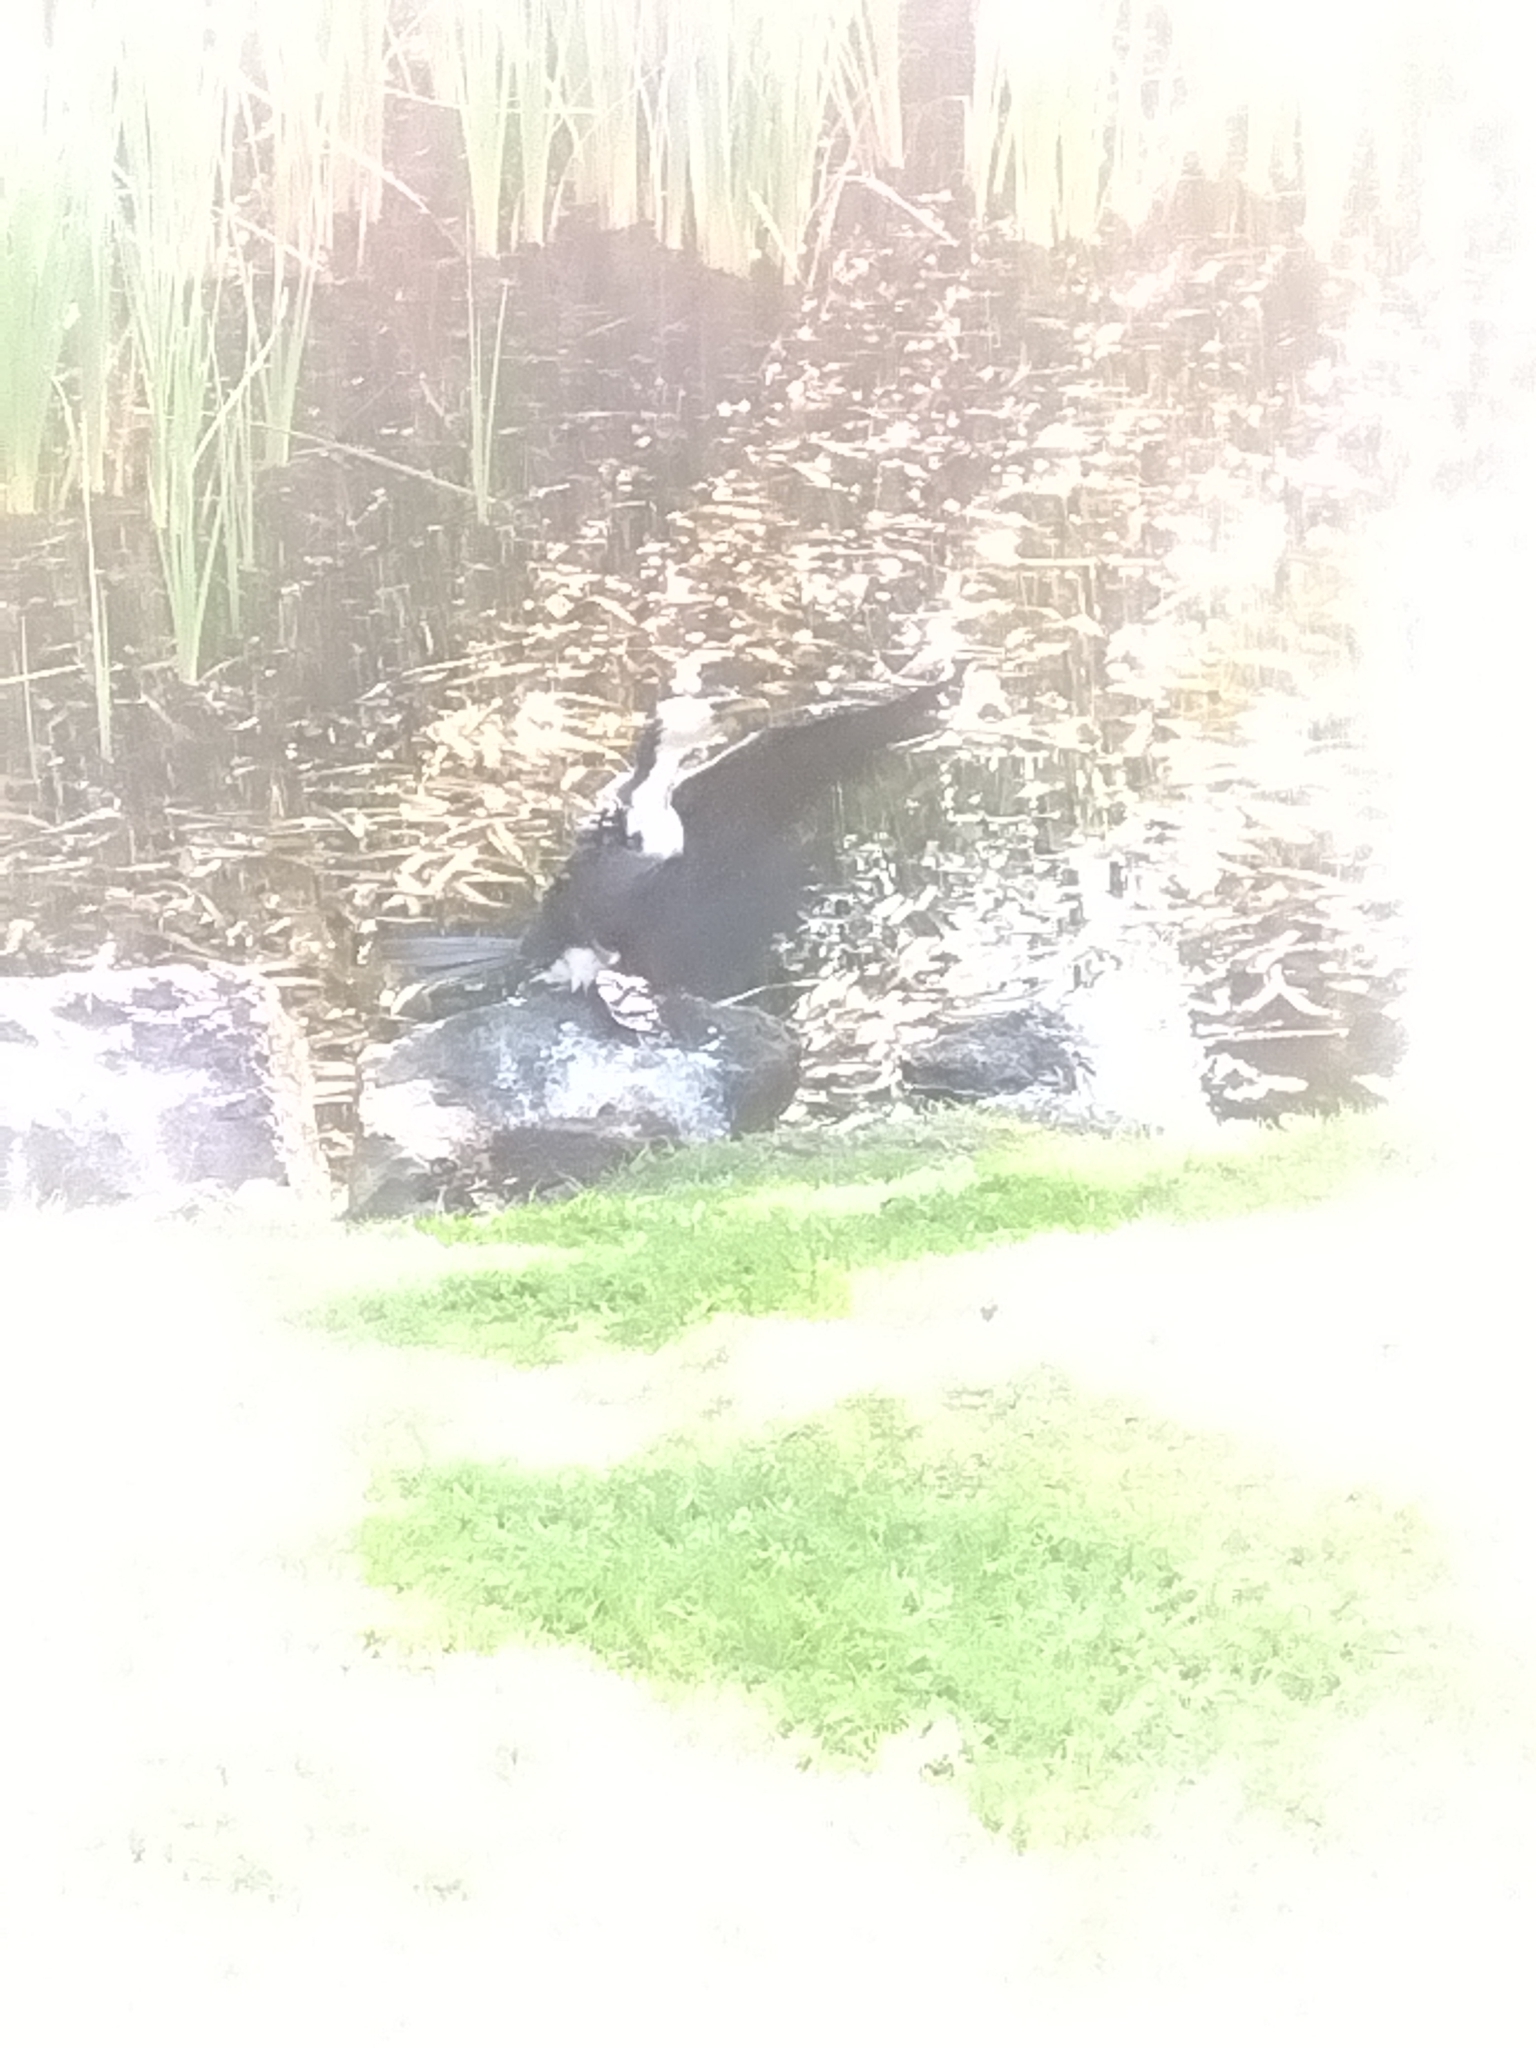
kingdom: Animalia
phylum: Chordata
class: Aves
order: Suliformes
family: Phalacrocoracidae
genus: Microcarbo
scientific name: Microcarbo melanoleucos
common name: Little pied cormorant
